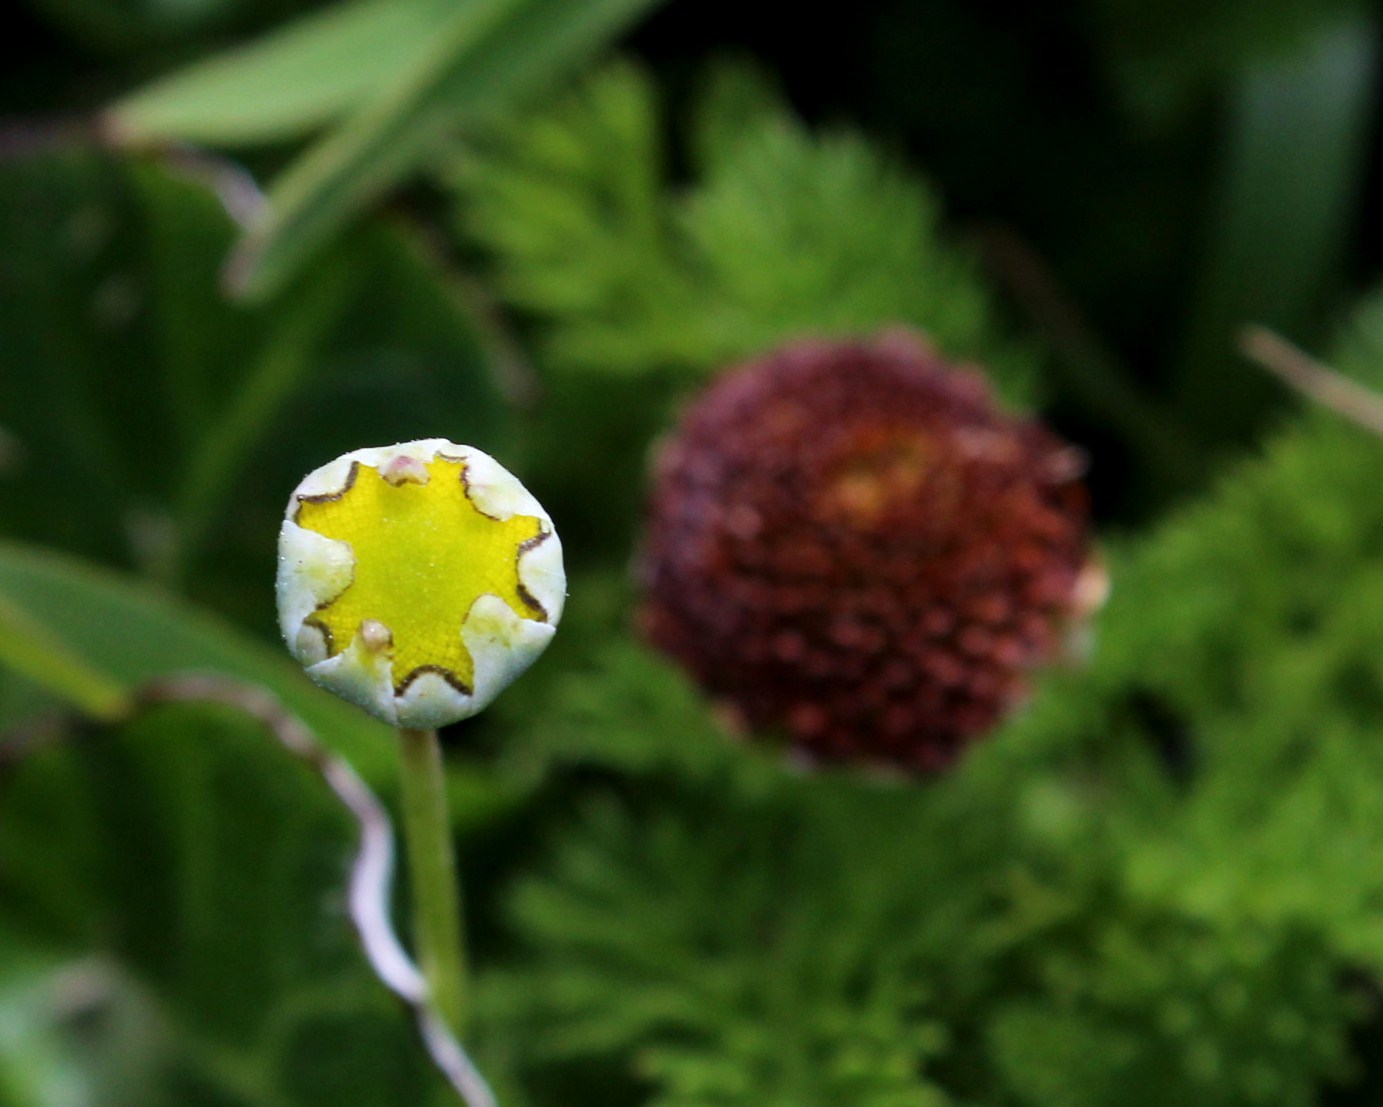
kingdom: Plantae
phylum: Tracheophyta
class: Magnoliopsida
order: Asterales
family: Asteraceae
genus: Cotula
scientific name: Cotula discolor
